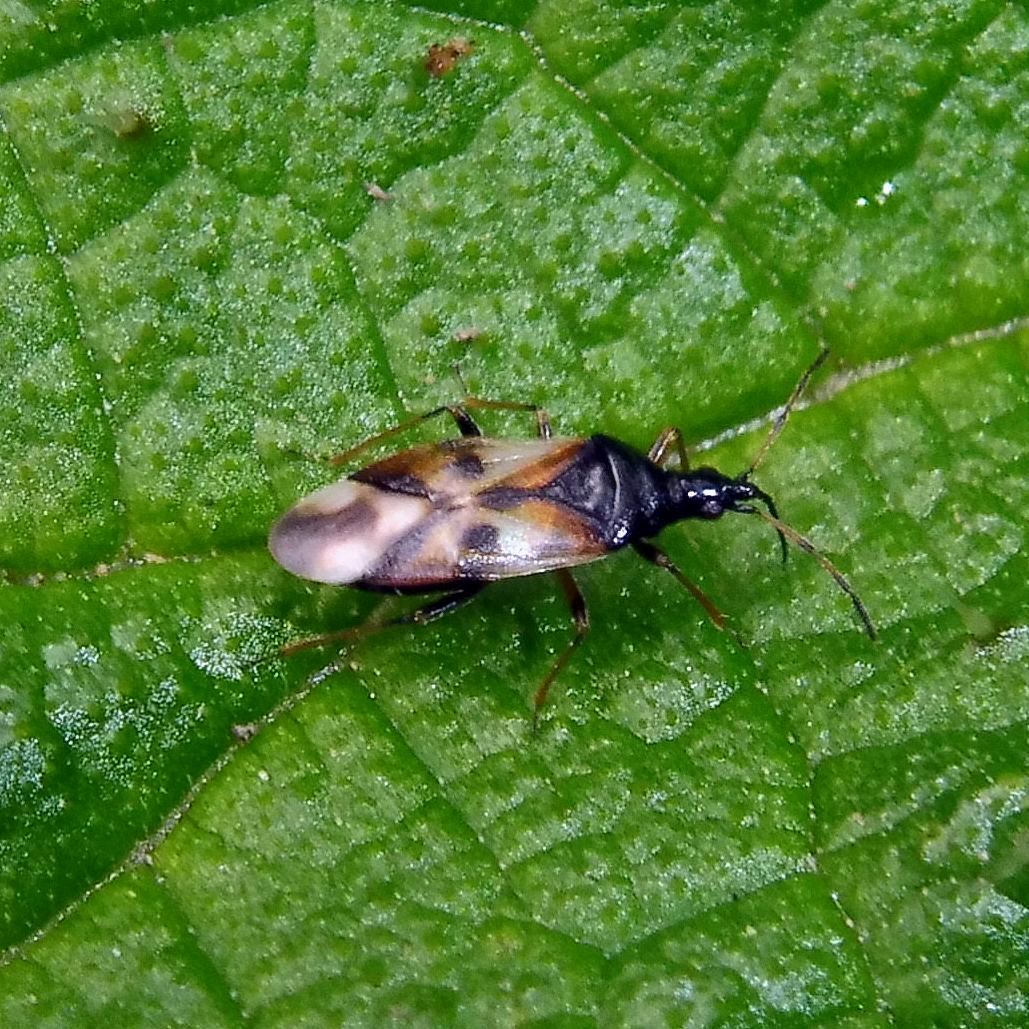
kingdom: Animalia
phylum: Arthropoda
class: Insecta
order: Hemiptera
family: Anthocoridae
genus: Anthocoris
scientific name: Anthocoris nemorum
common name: Minute pirate bug
